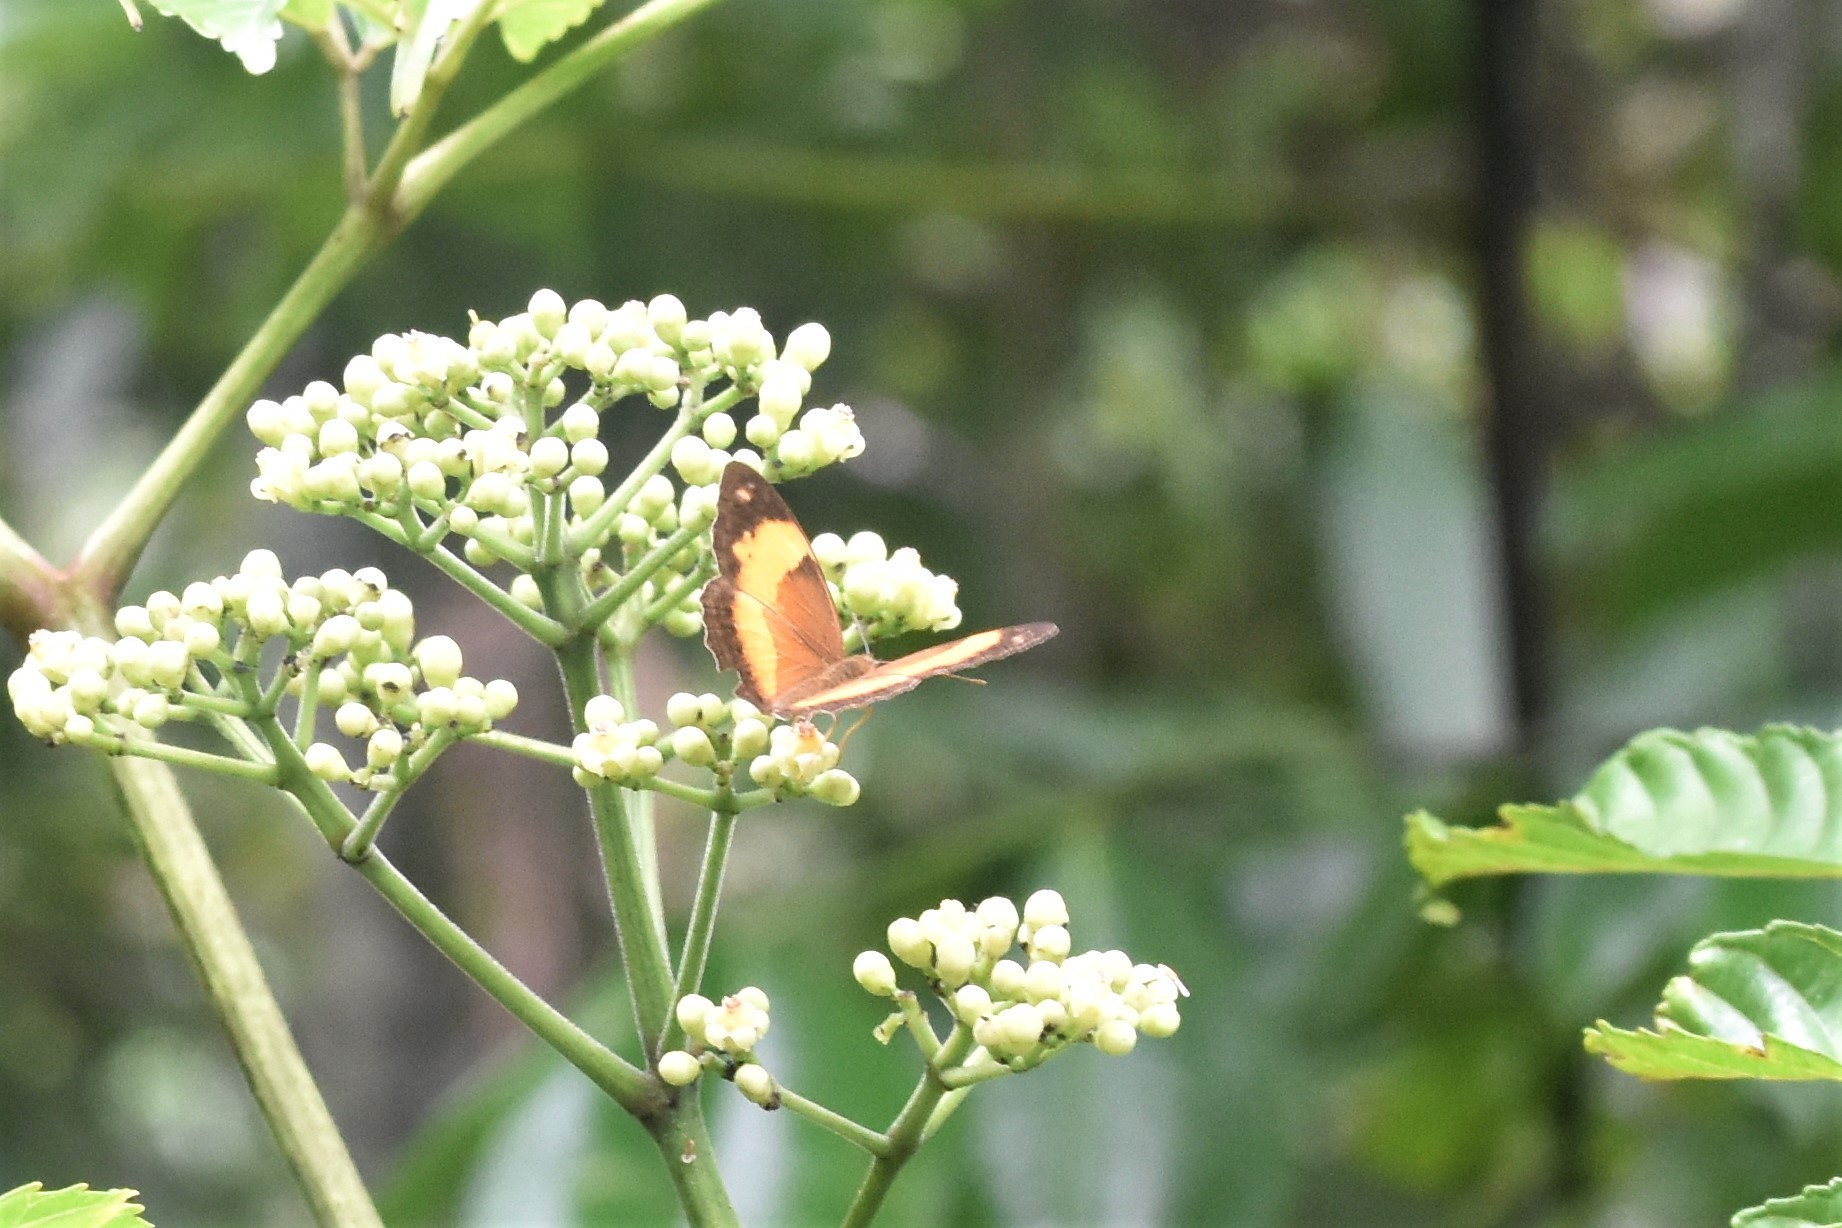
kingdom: Animalia
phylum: Arthropoda
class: Insecta
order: Lepidoptera
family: Nymphalidae
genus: Cupha
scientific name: Cupha prosope
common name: Bordered rustic
